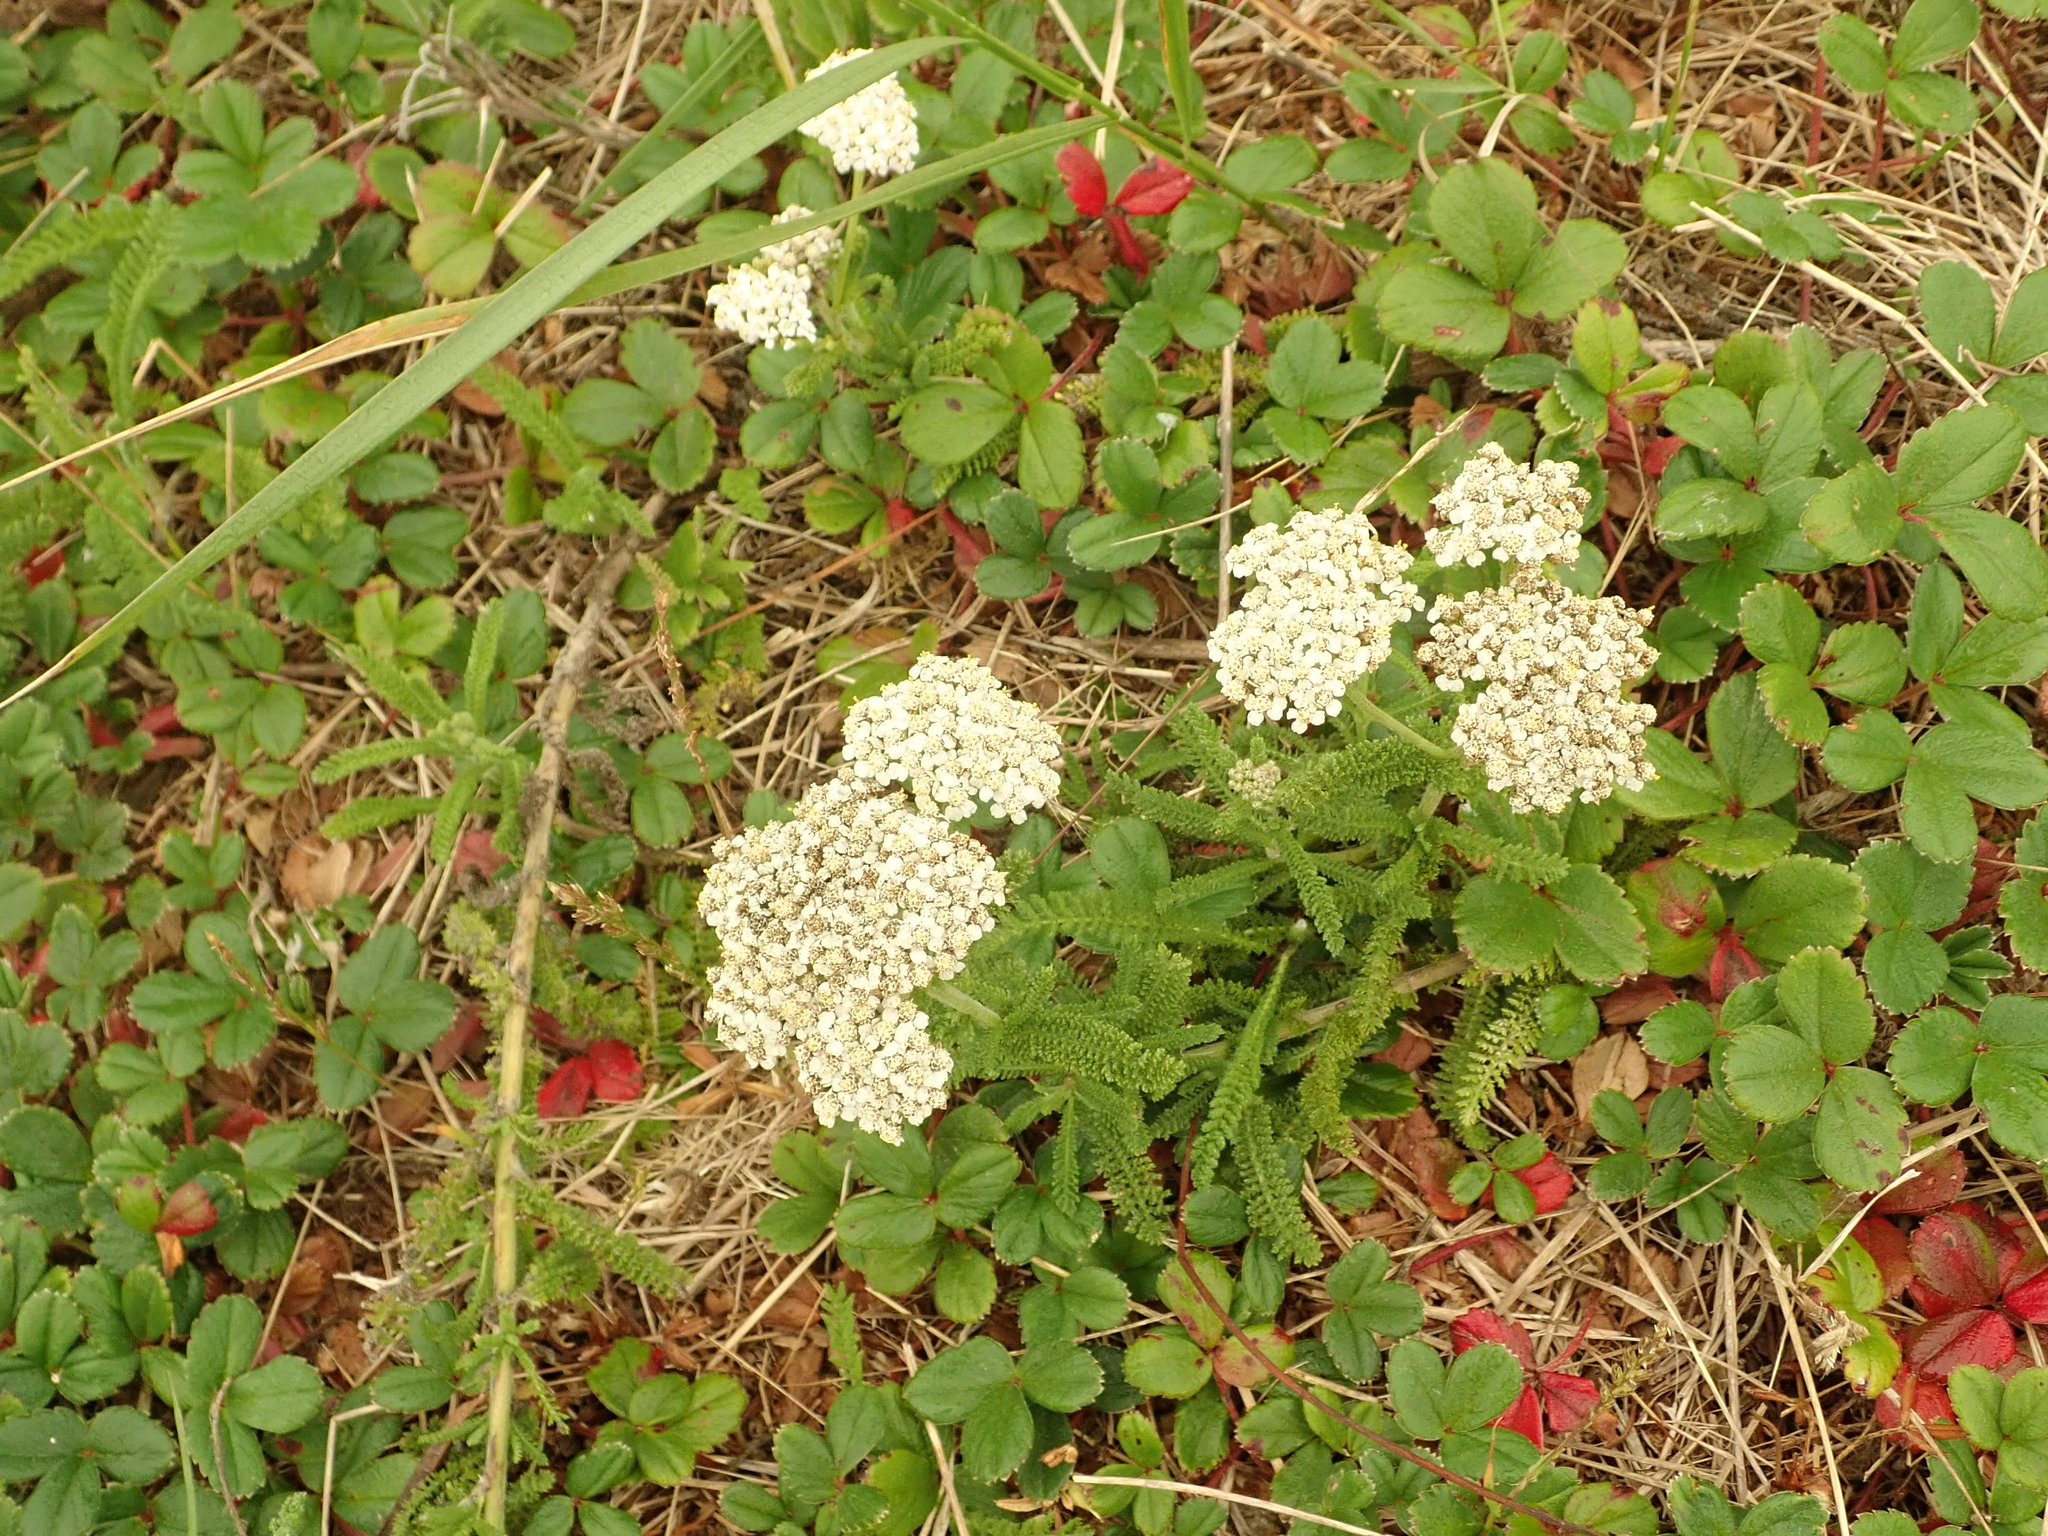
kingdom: Plantae
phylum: Tracheophyta
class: Magnoliopsida
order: Asterales
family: Asteraceae
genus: Achillea
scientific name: Achillea millefolium
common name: Yarrow
